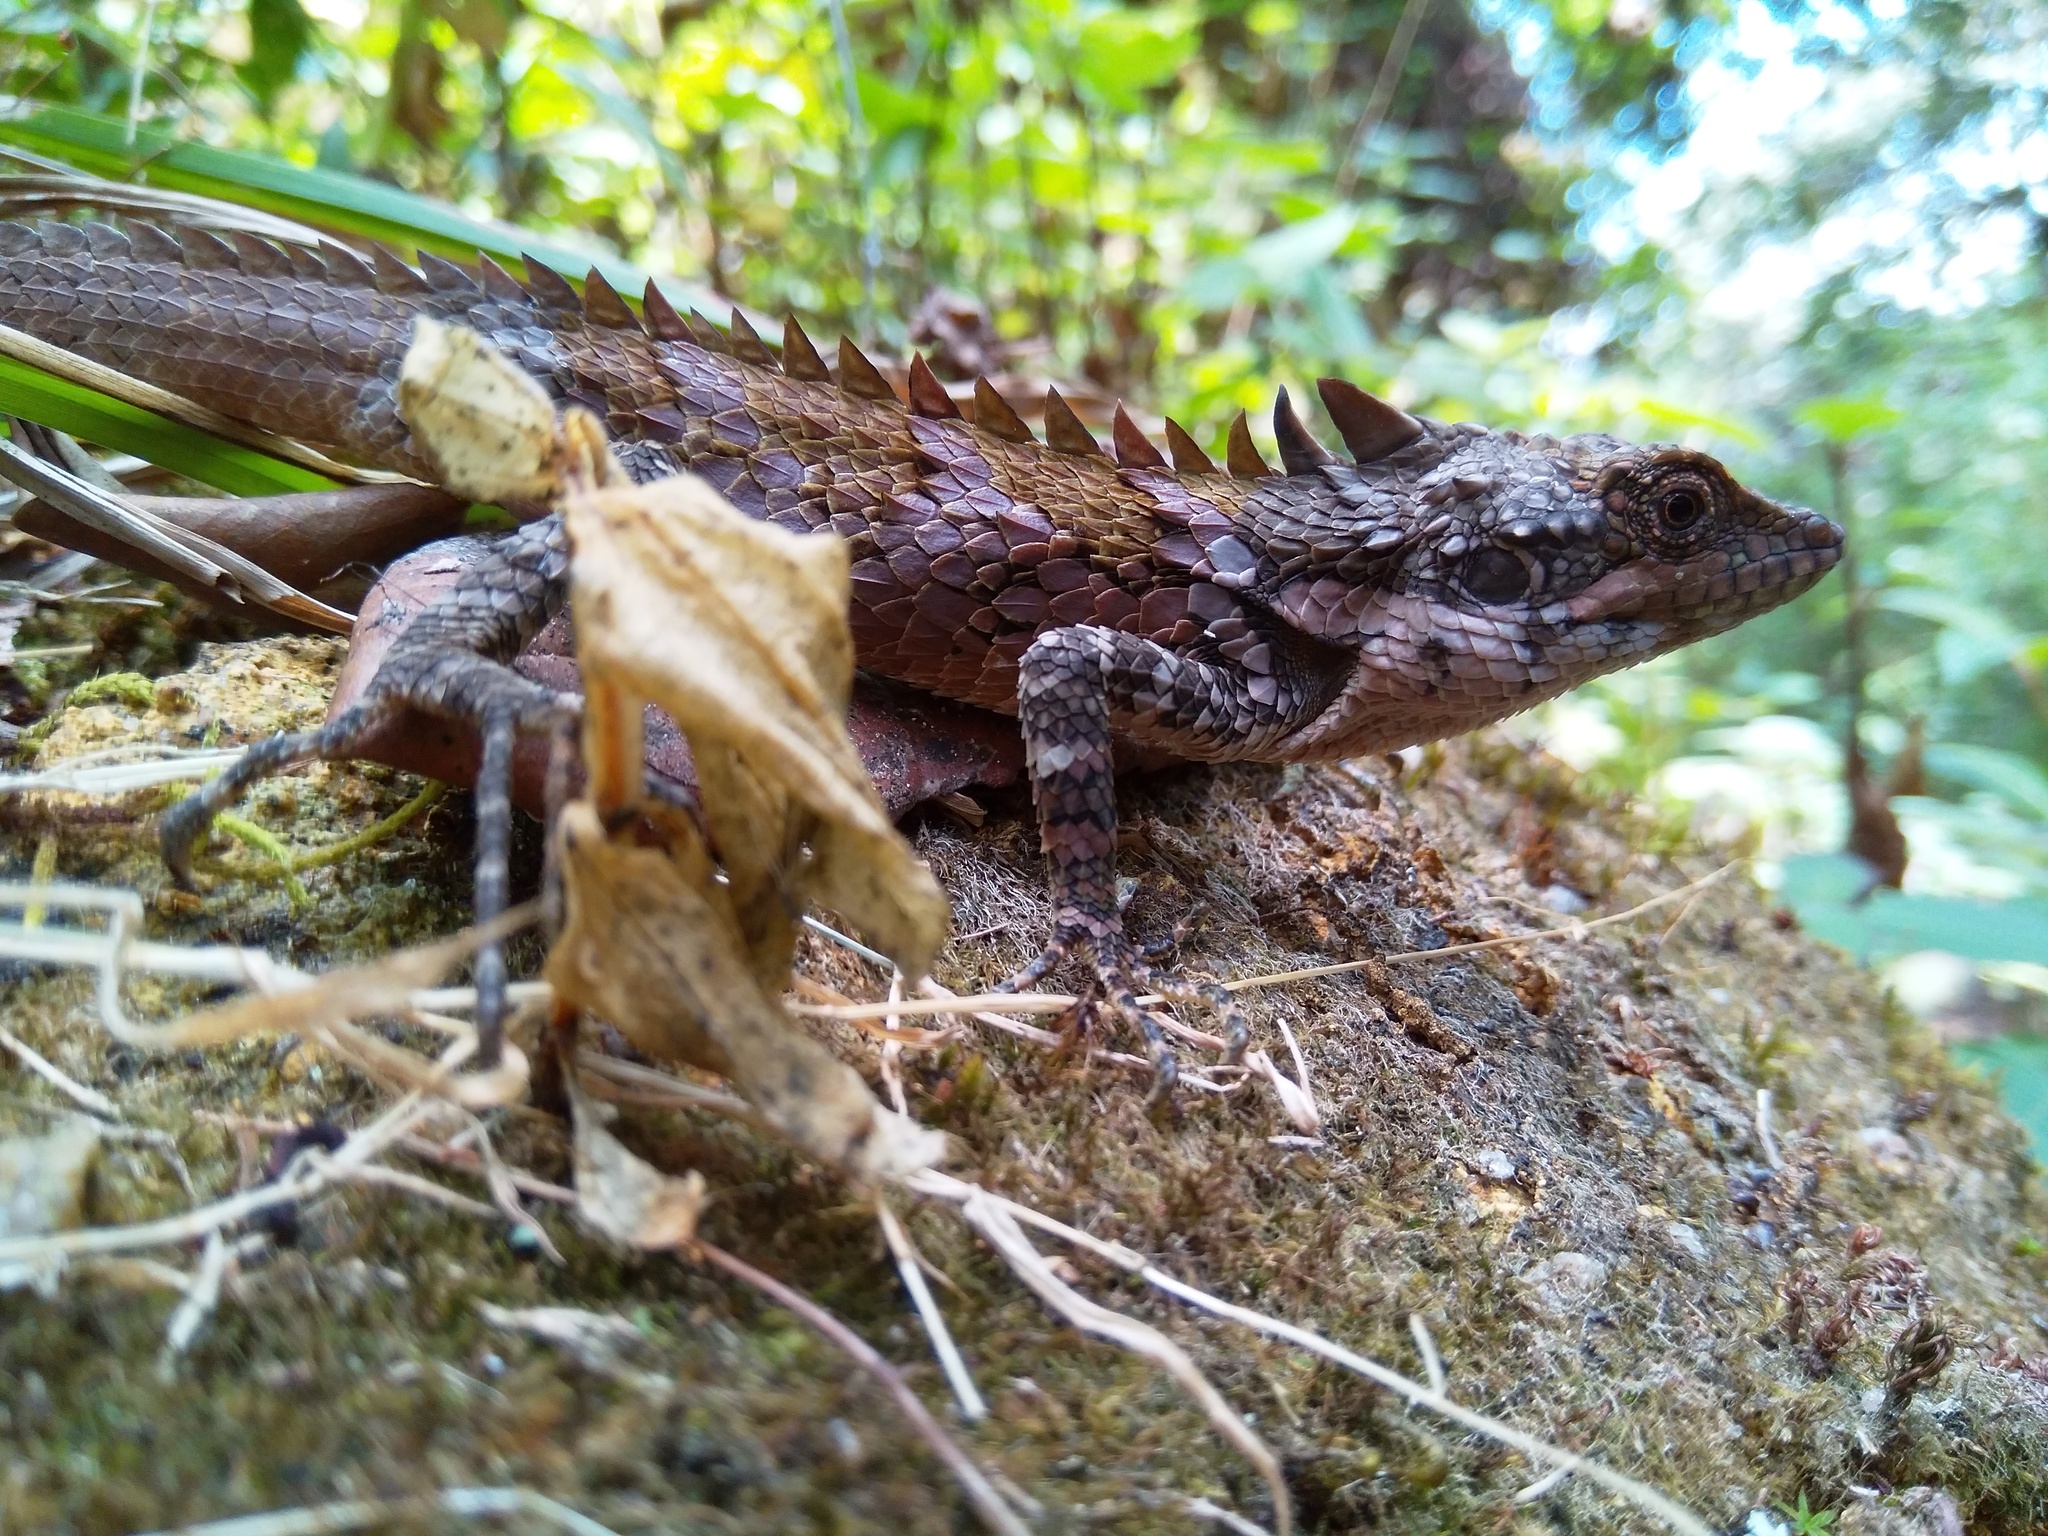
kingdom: Animalia
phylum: Chordata
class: Squamata
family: Agamidae
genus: Salea
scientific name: Salea anamallayana
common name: Anaimalai spiny lizard
